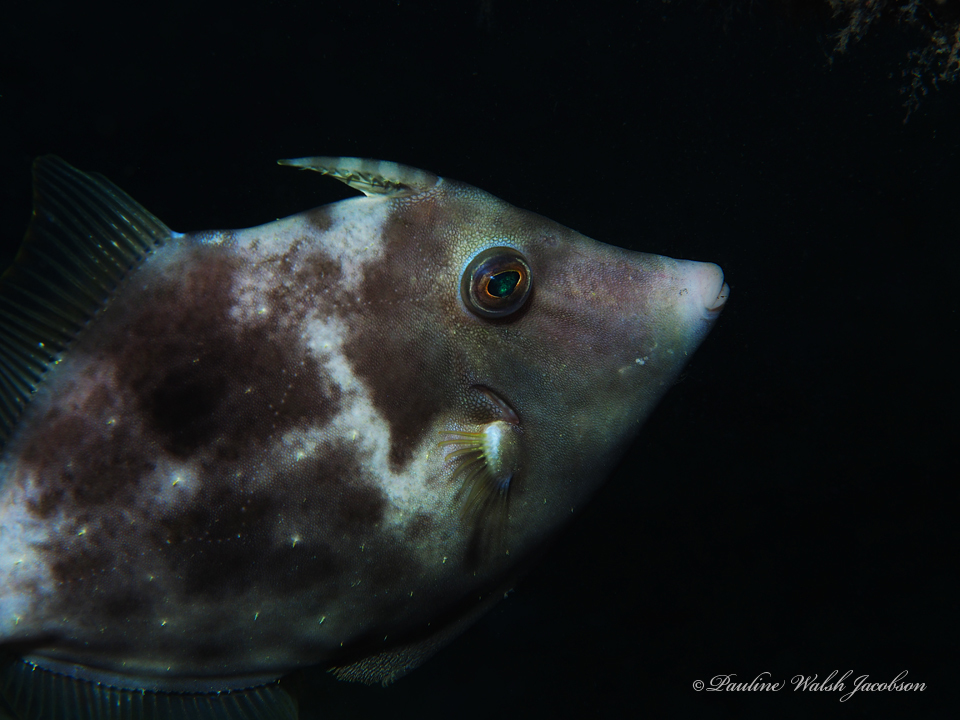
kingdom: Animalia
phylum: Chordata
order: Tetraodontiformes
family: Monacanthidae
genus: Stephanolepis
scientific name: Stephanolepis hispidus
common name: Planehead filefish
